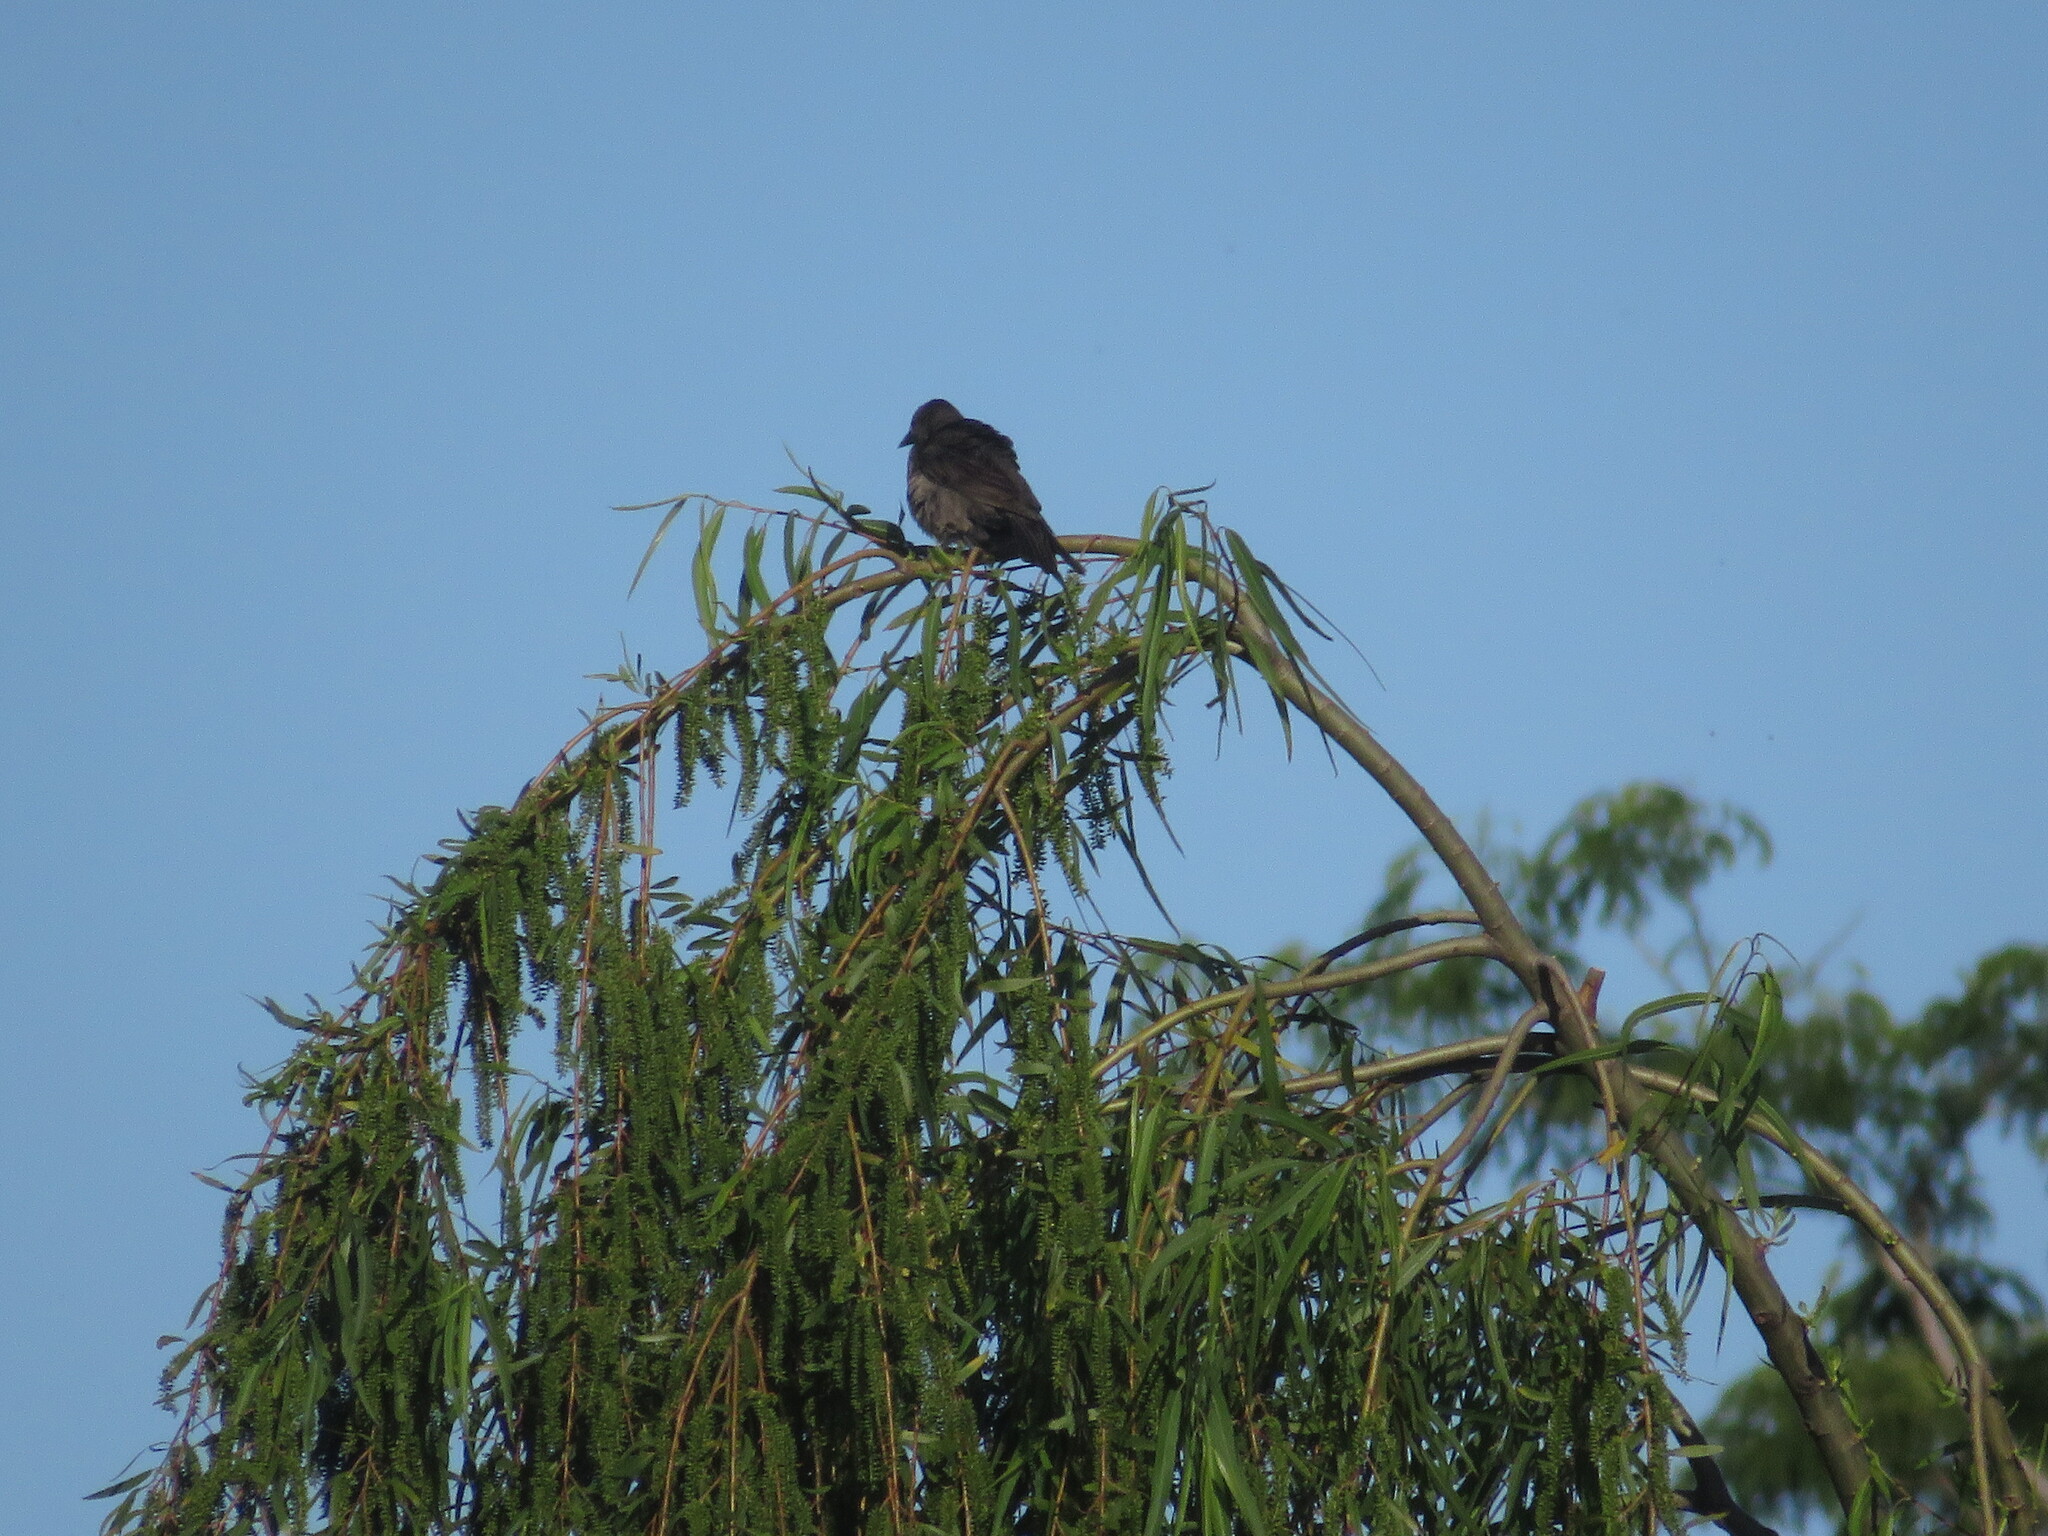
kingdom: Animalia
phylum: Chordata
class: Aves
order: Passeriformes
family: Icteridae
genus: Molothrus
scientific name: Molothrus bonariensis
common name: Shiny cowbird
